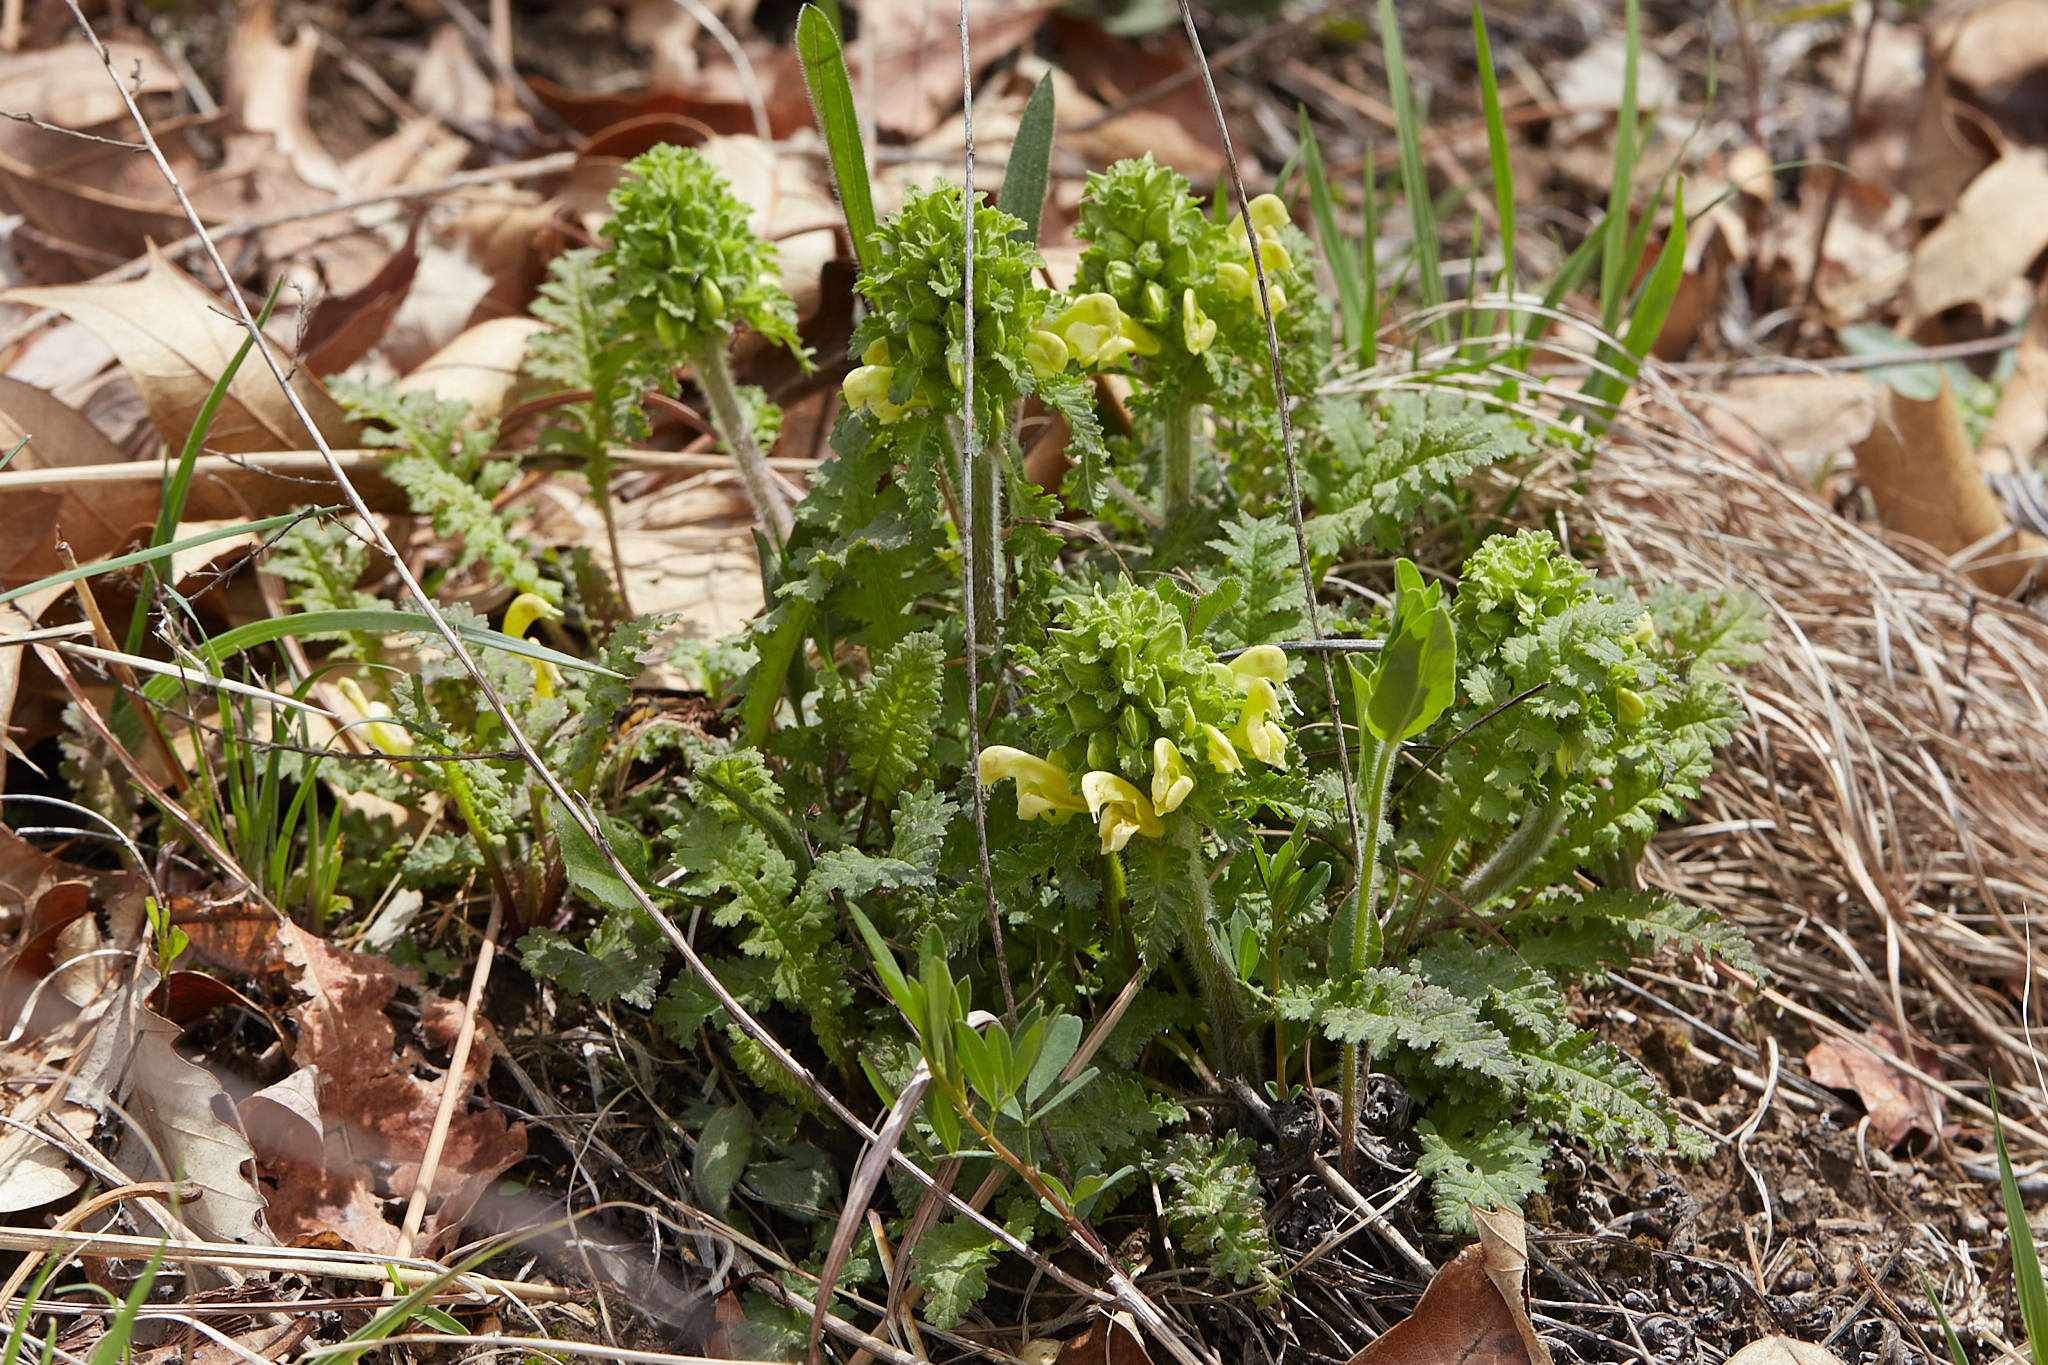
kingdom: Plantae
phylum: Tracheophyta
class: Magnoliopsida
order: Lamiales
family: Orobanchaceae
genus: Pedicularis
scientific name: Pedicularis canadensis
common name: Early lousewort
